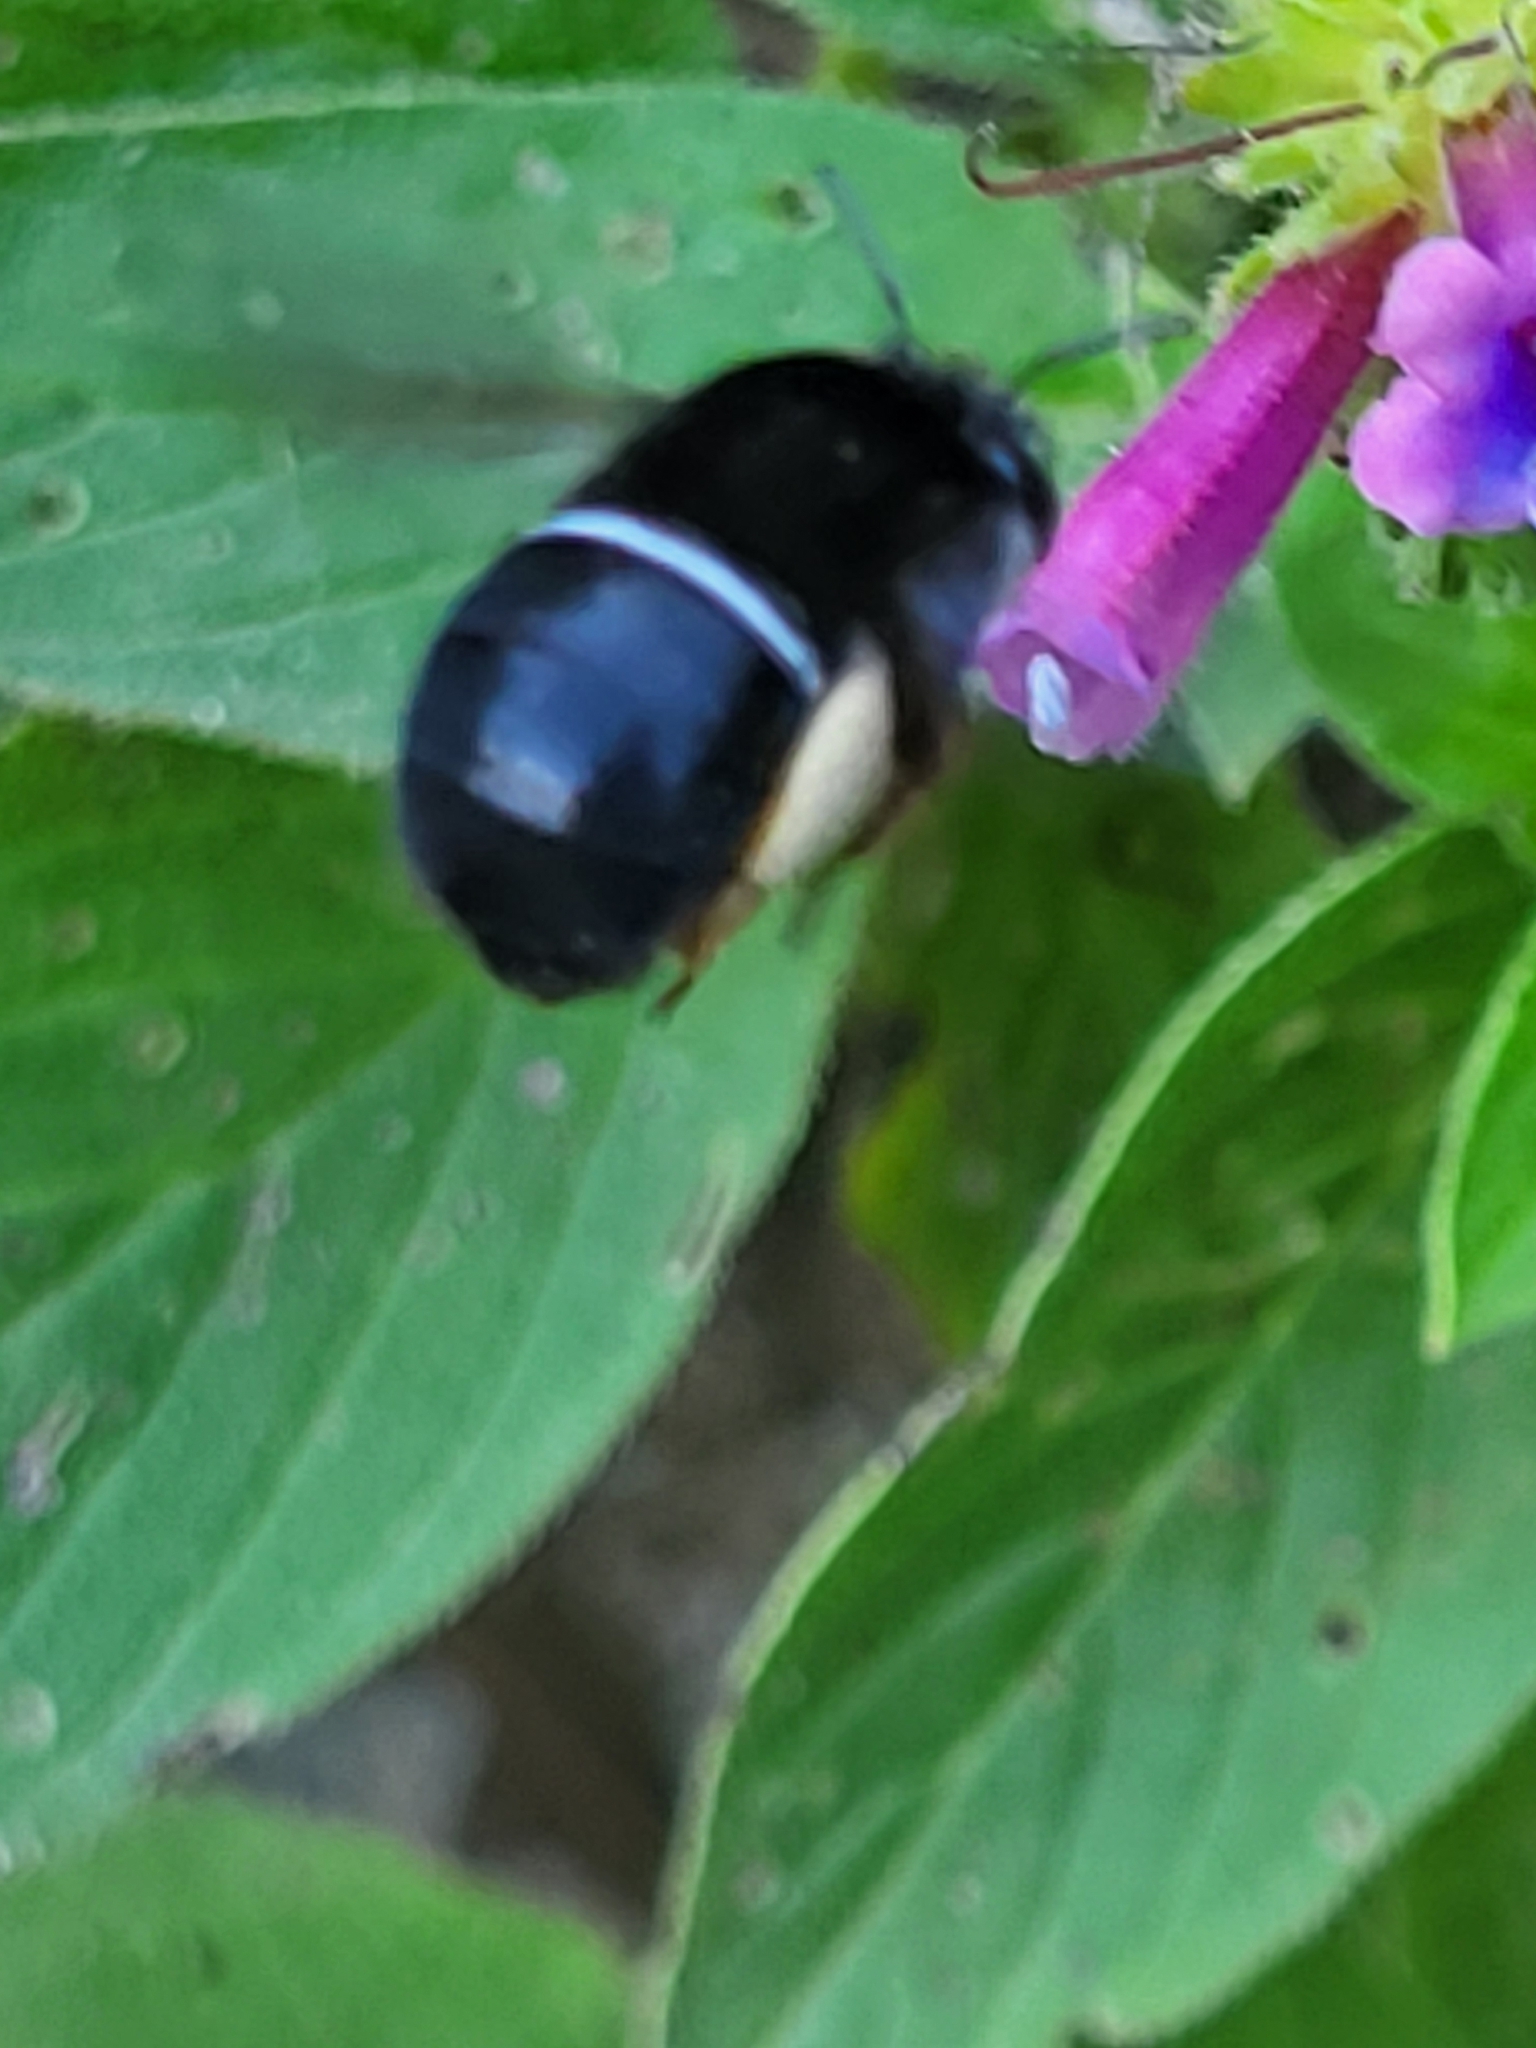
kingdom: Animalia
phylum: Arthropoda
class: Insecta
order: Hymenoptera
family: Apidae
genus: Amegilla
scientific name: Amegilla godofredi
